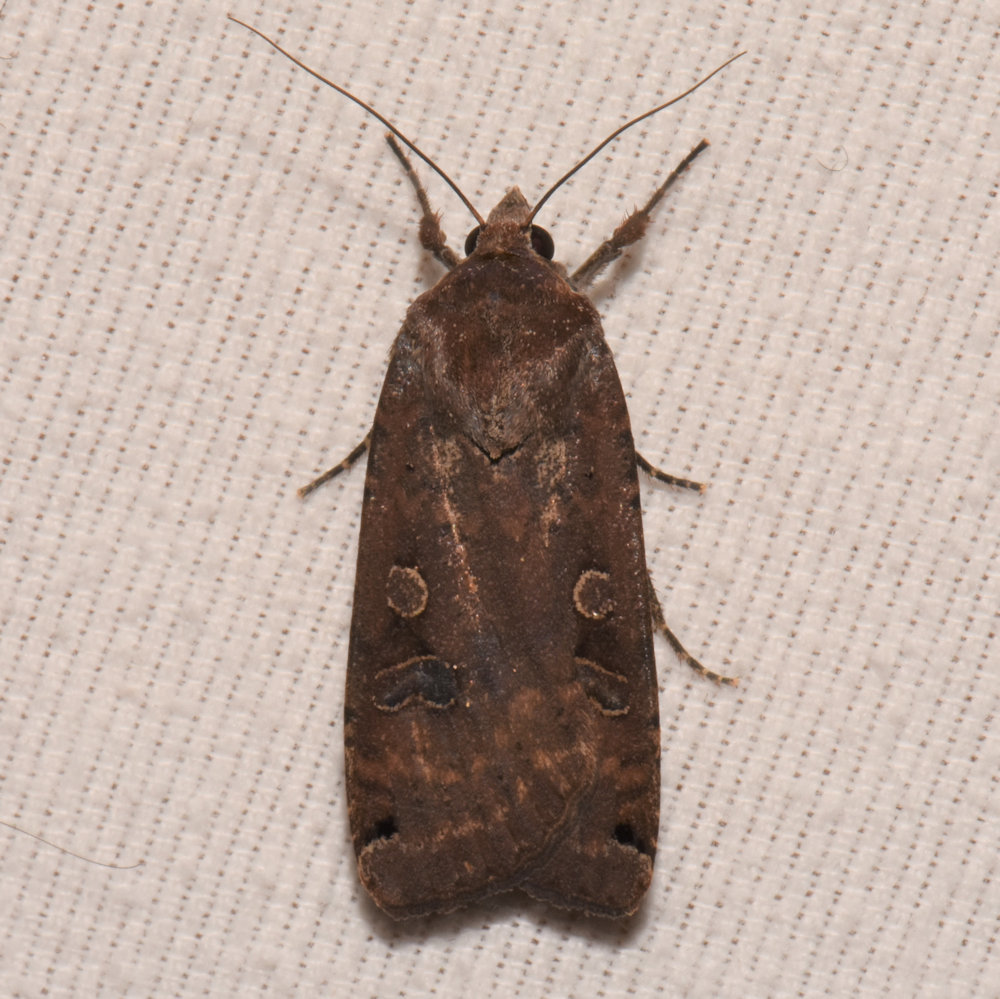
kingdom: Animalia
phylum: Arthropoda
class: Insecta
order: Lepidoptera
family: Noctuidae
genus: Noctua
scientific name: Noctua pronuba
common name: Large yellow underwing
